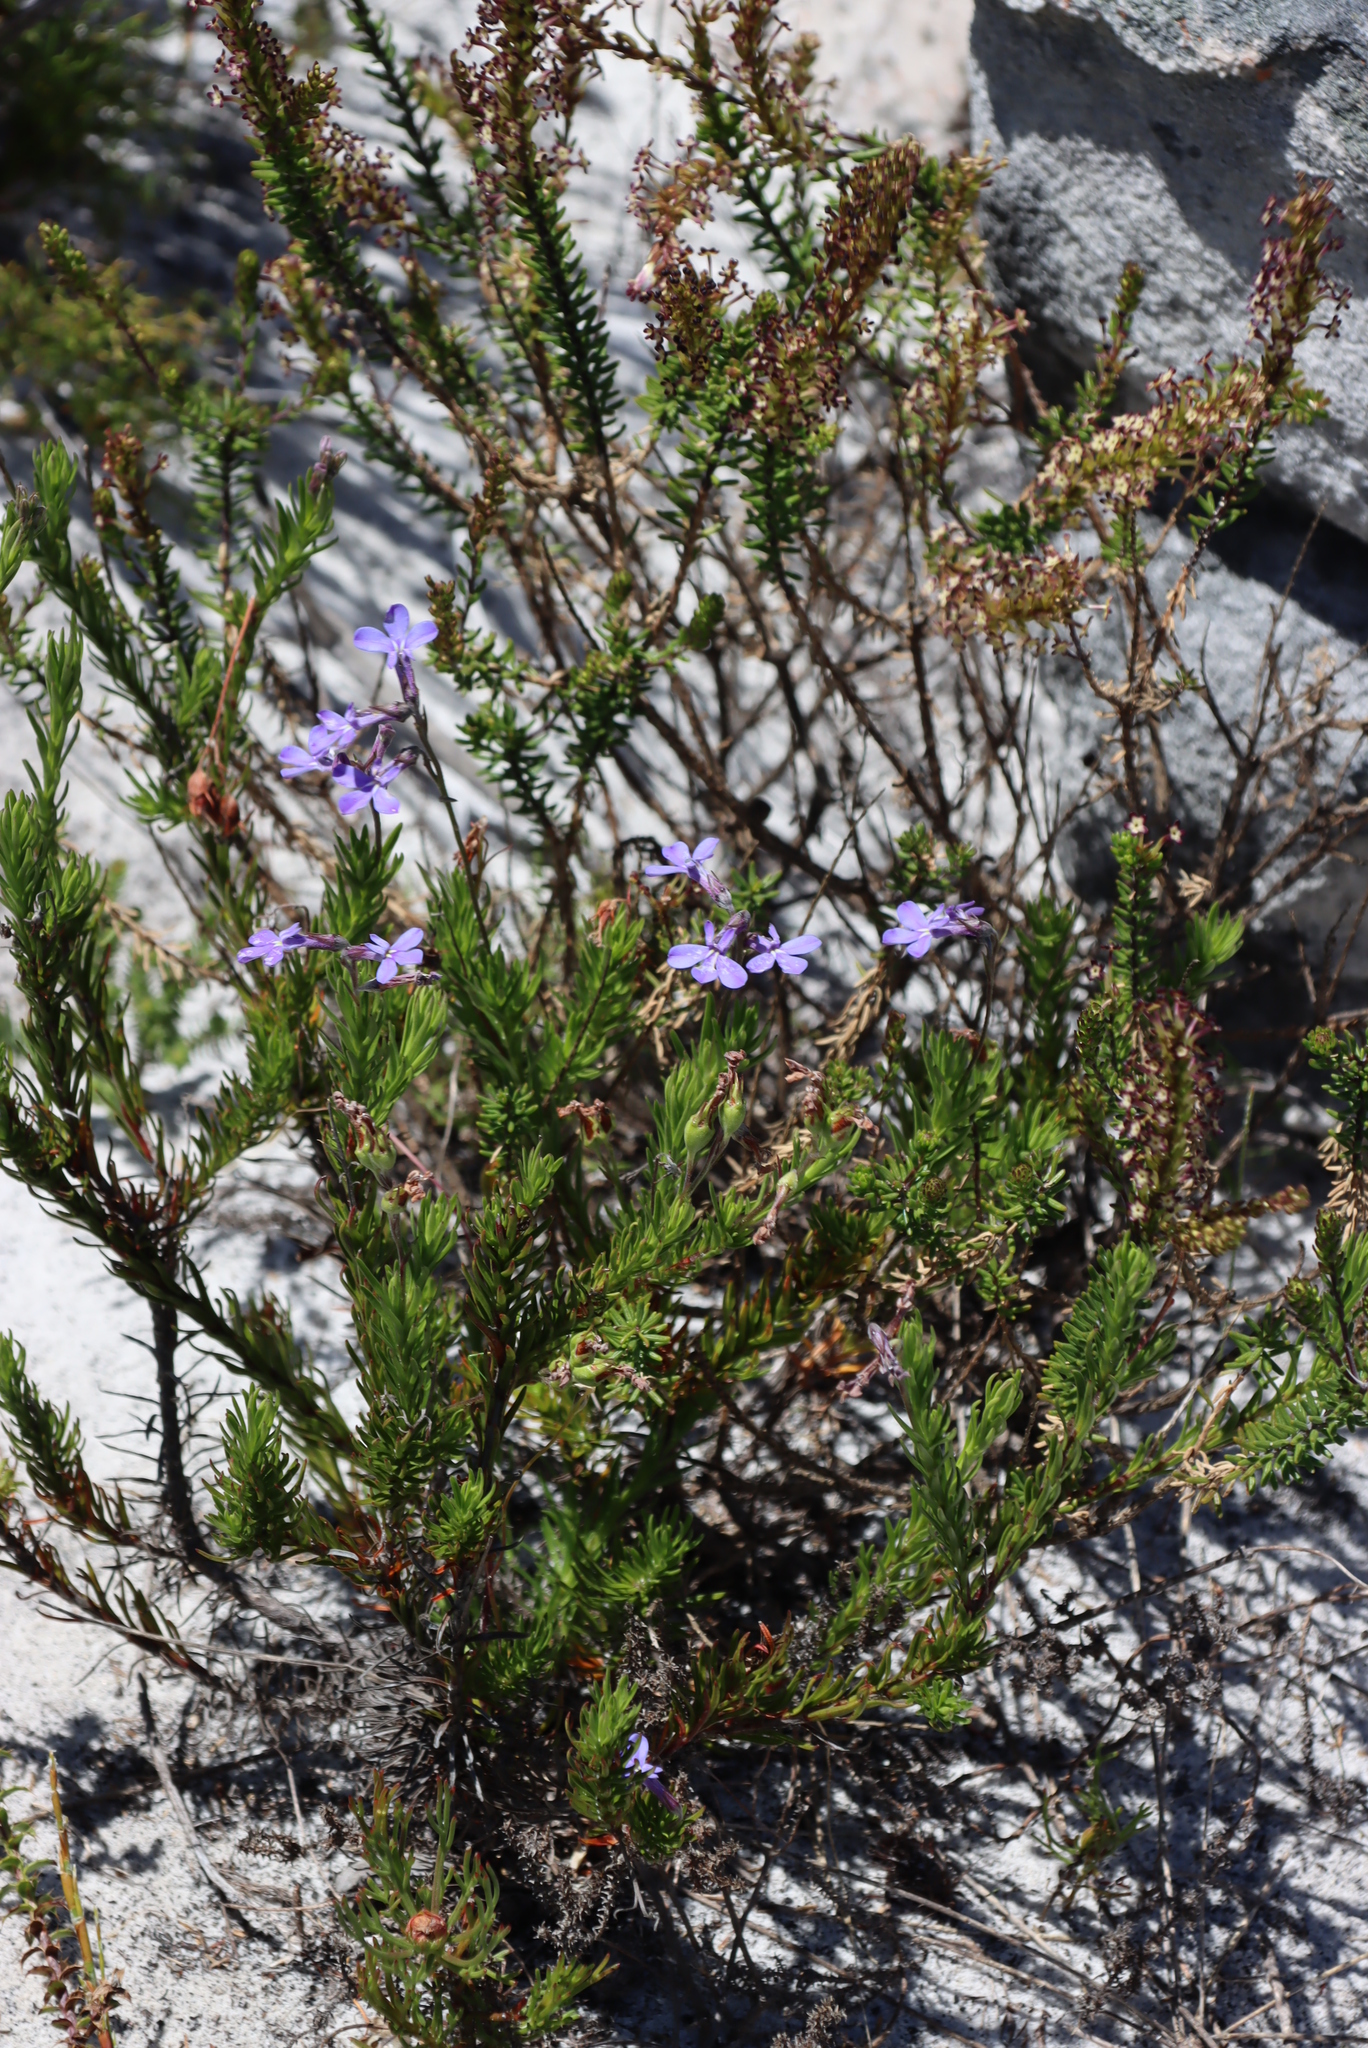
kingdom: Plantae
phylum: Tracheophyta
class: Magnoliopsida
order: Asterales
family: Campanulaceae
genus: Lobelia
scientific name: Lobelia pinifolia
